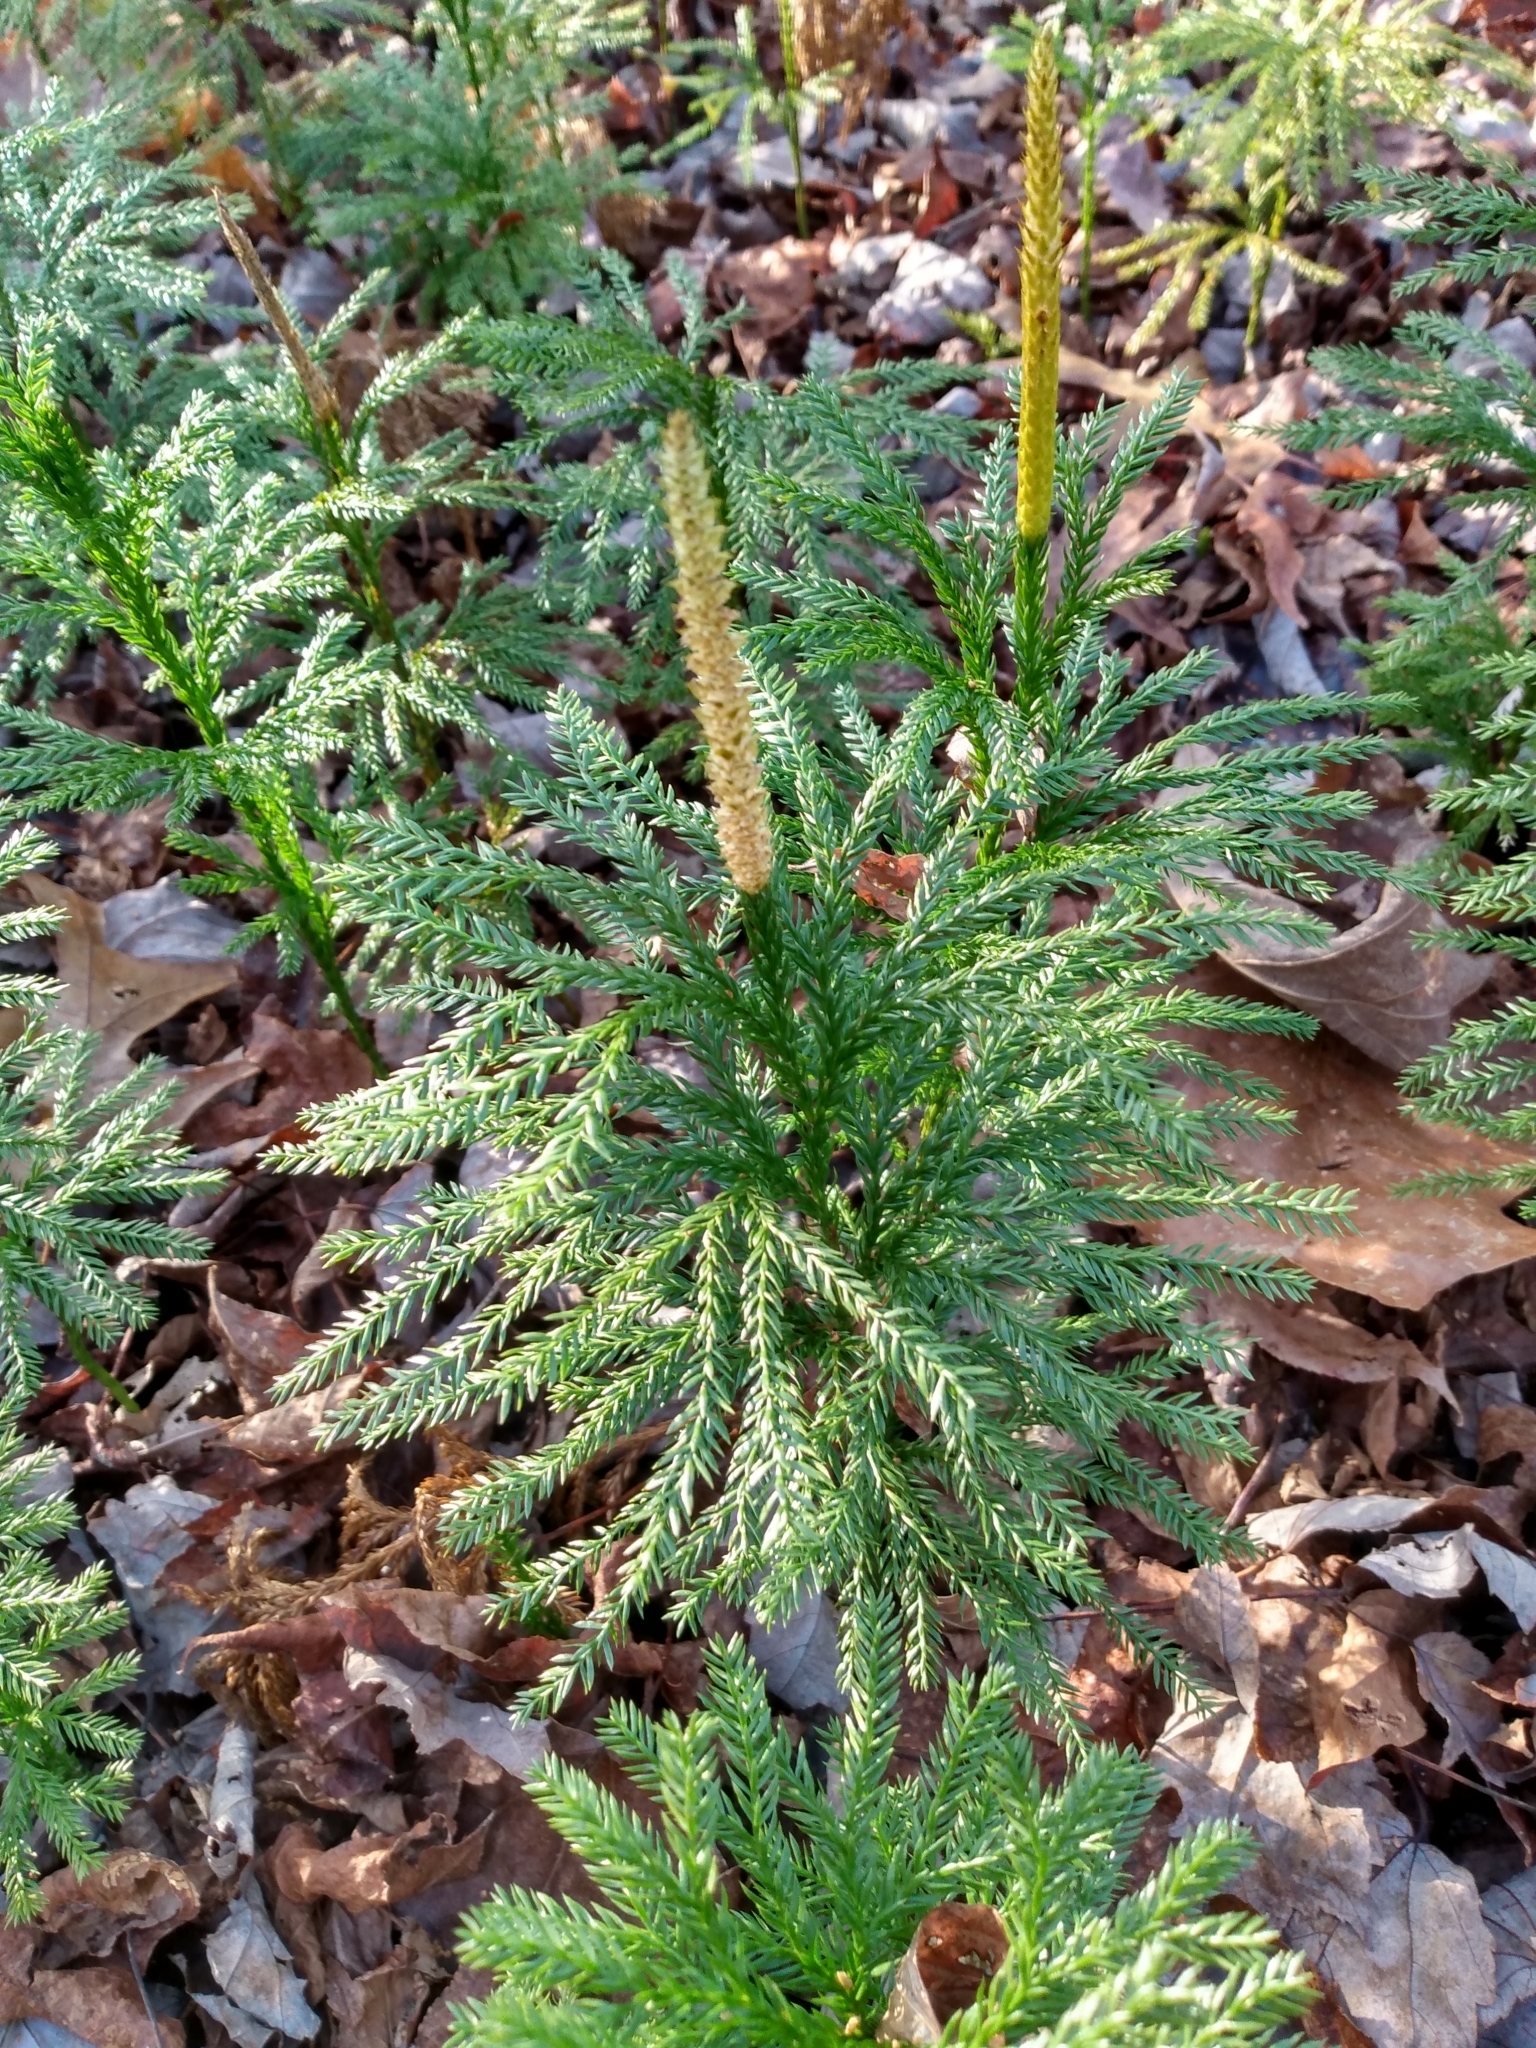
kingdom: Plantae
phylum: Tracheophyta
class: Lycopodiopsida
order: Lycopodiales
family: Lycopodiaceae
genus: Dendrolycopodium
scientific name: Dendrolycopodium obscurum
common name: Common ground-pine
